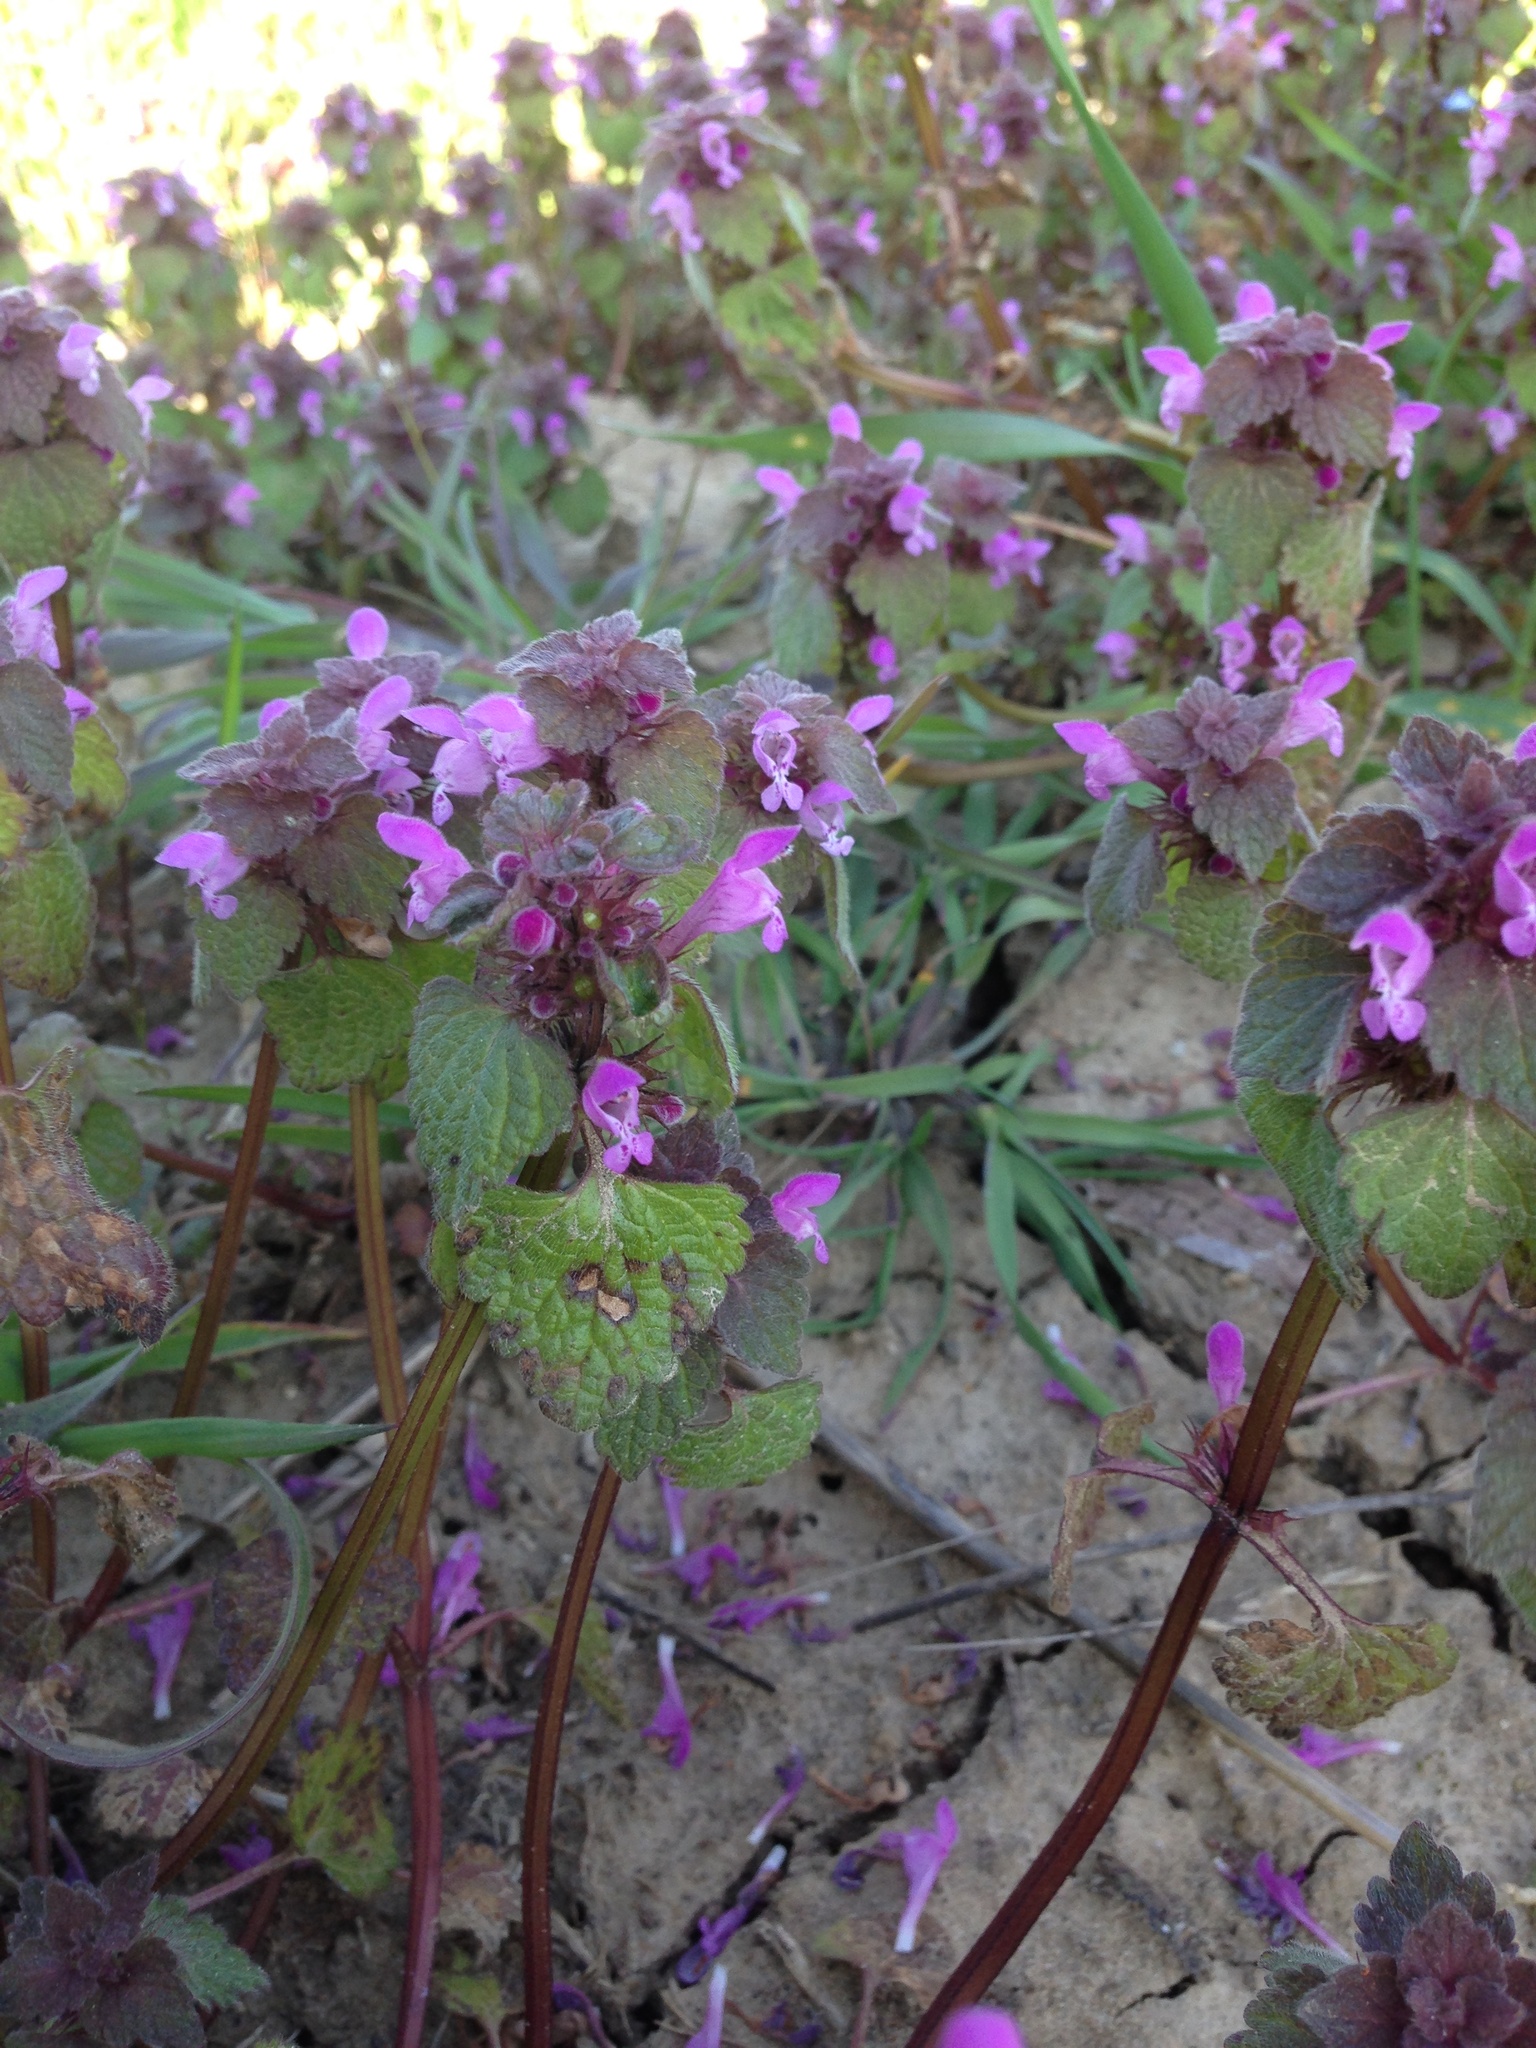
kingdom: Plantae
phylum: Tracheophyta
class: Magnoliopsida
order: Lamiales
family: Lamiaceae
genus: Lamium
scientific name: Lamium purpureum
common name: Red dead-nettle
